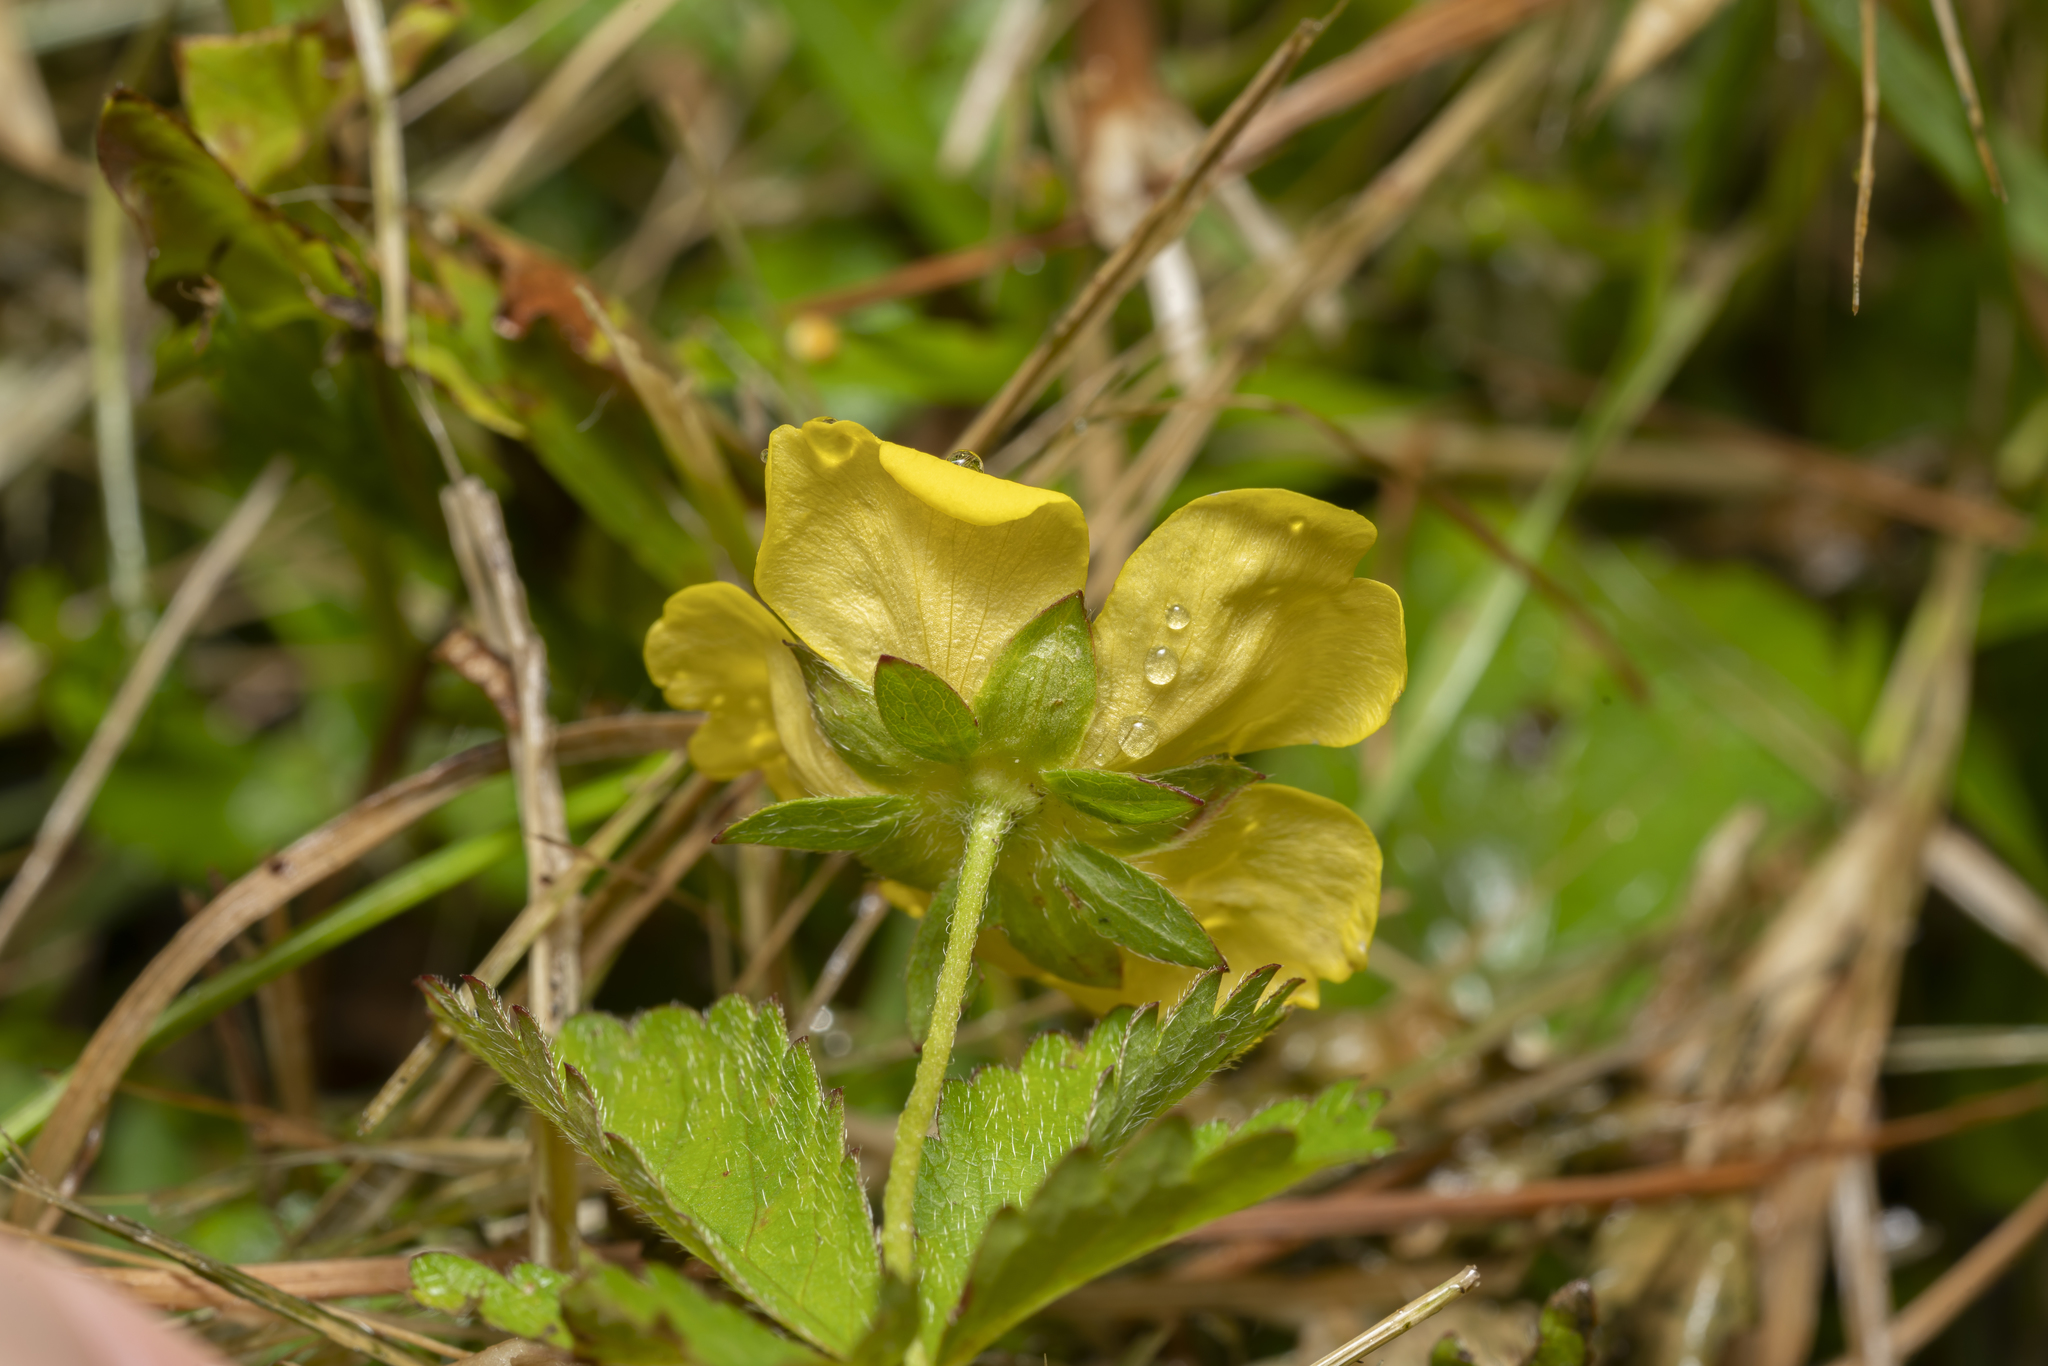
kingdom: Plantae
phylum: Tracheophyta
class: Magnoliopsida
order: Rosales
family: Rosaceae
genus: Potentilla
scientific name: Potentilla reptans
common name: Creeping cinquefoil
